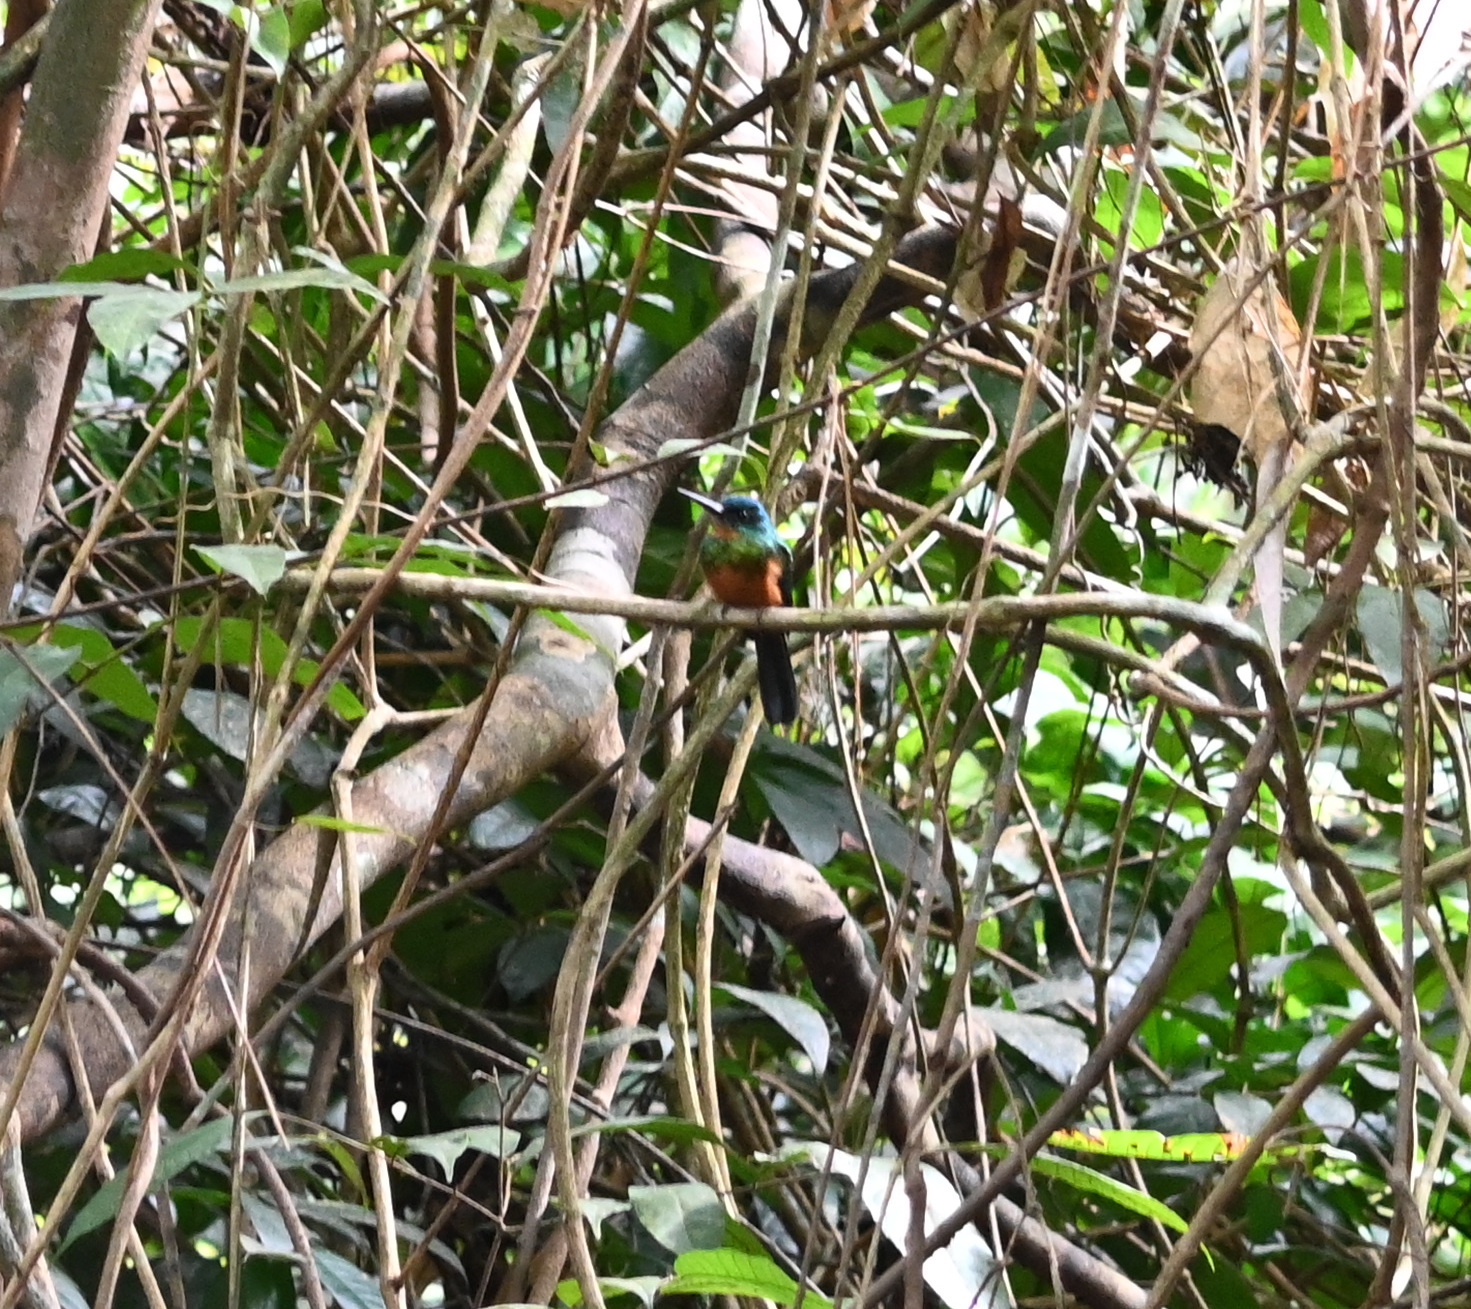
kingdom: Animalia
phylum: Chordata
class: Aves
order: Piciformes
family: Galbulidae
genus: Galbula
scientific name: Galbula galbula
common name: Green-tailed jacamar
